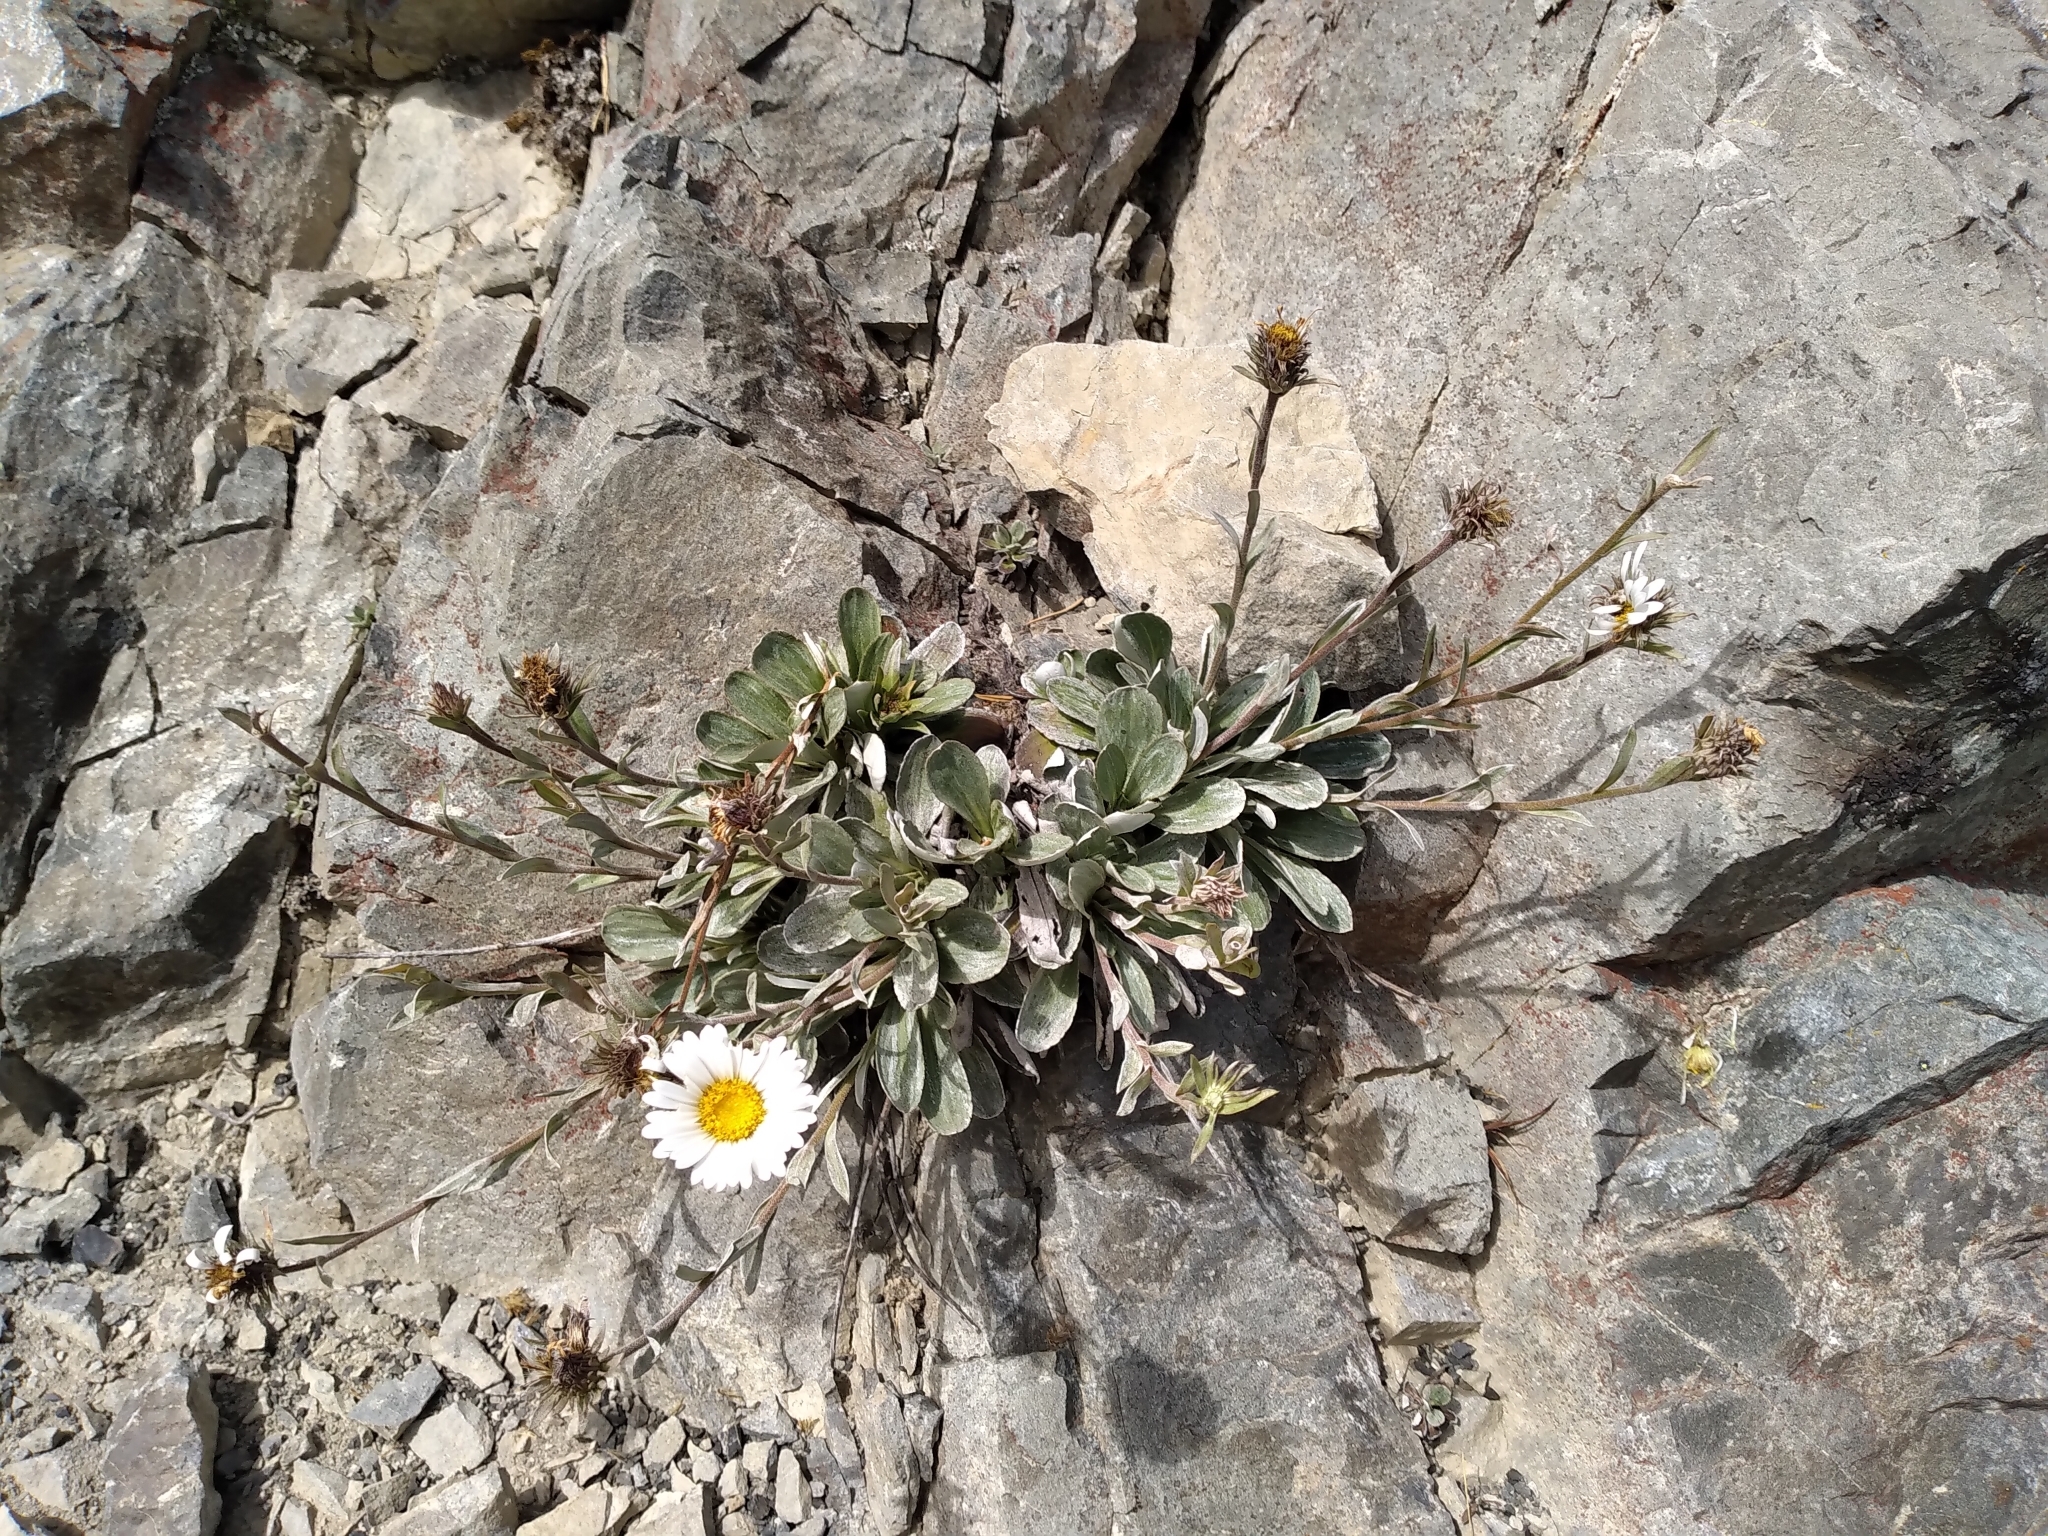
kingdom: Plantae
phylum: Tracheophyta
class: Magnoliopsida
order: Asterales
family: Asteraceae
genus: Celmisia
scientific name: Celmisia cockayneana
